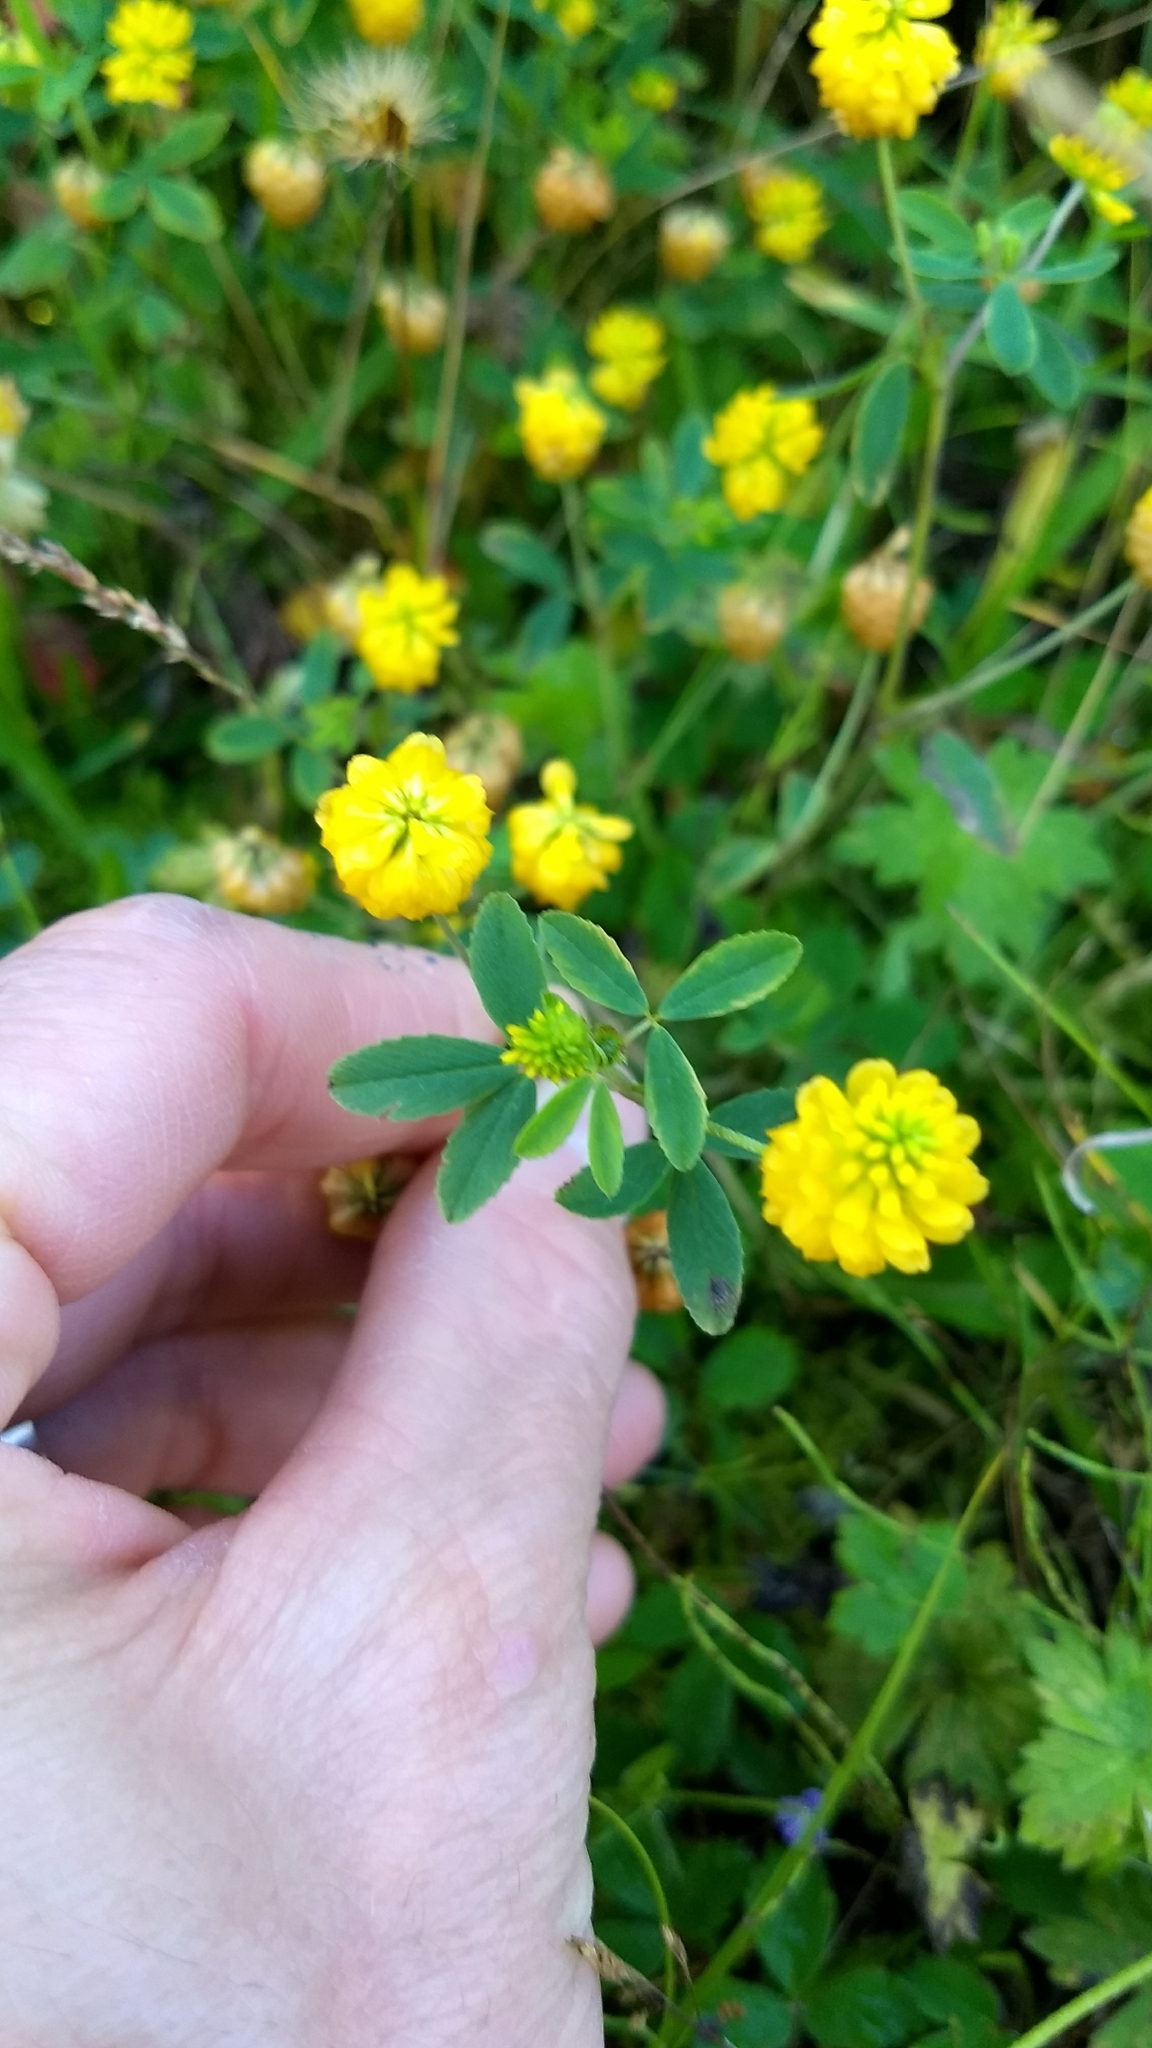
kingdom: Plantae
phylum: Tracheophyta
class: Magnoliopsida
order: Fabales
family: Fabaceae
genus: Trifolium
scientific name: Trifolium aureum
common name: Golden clover
